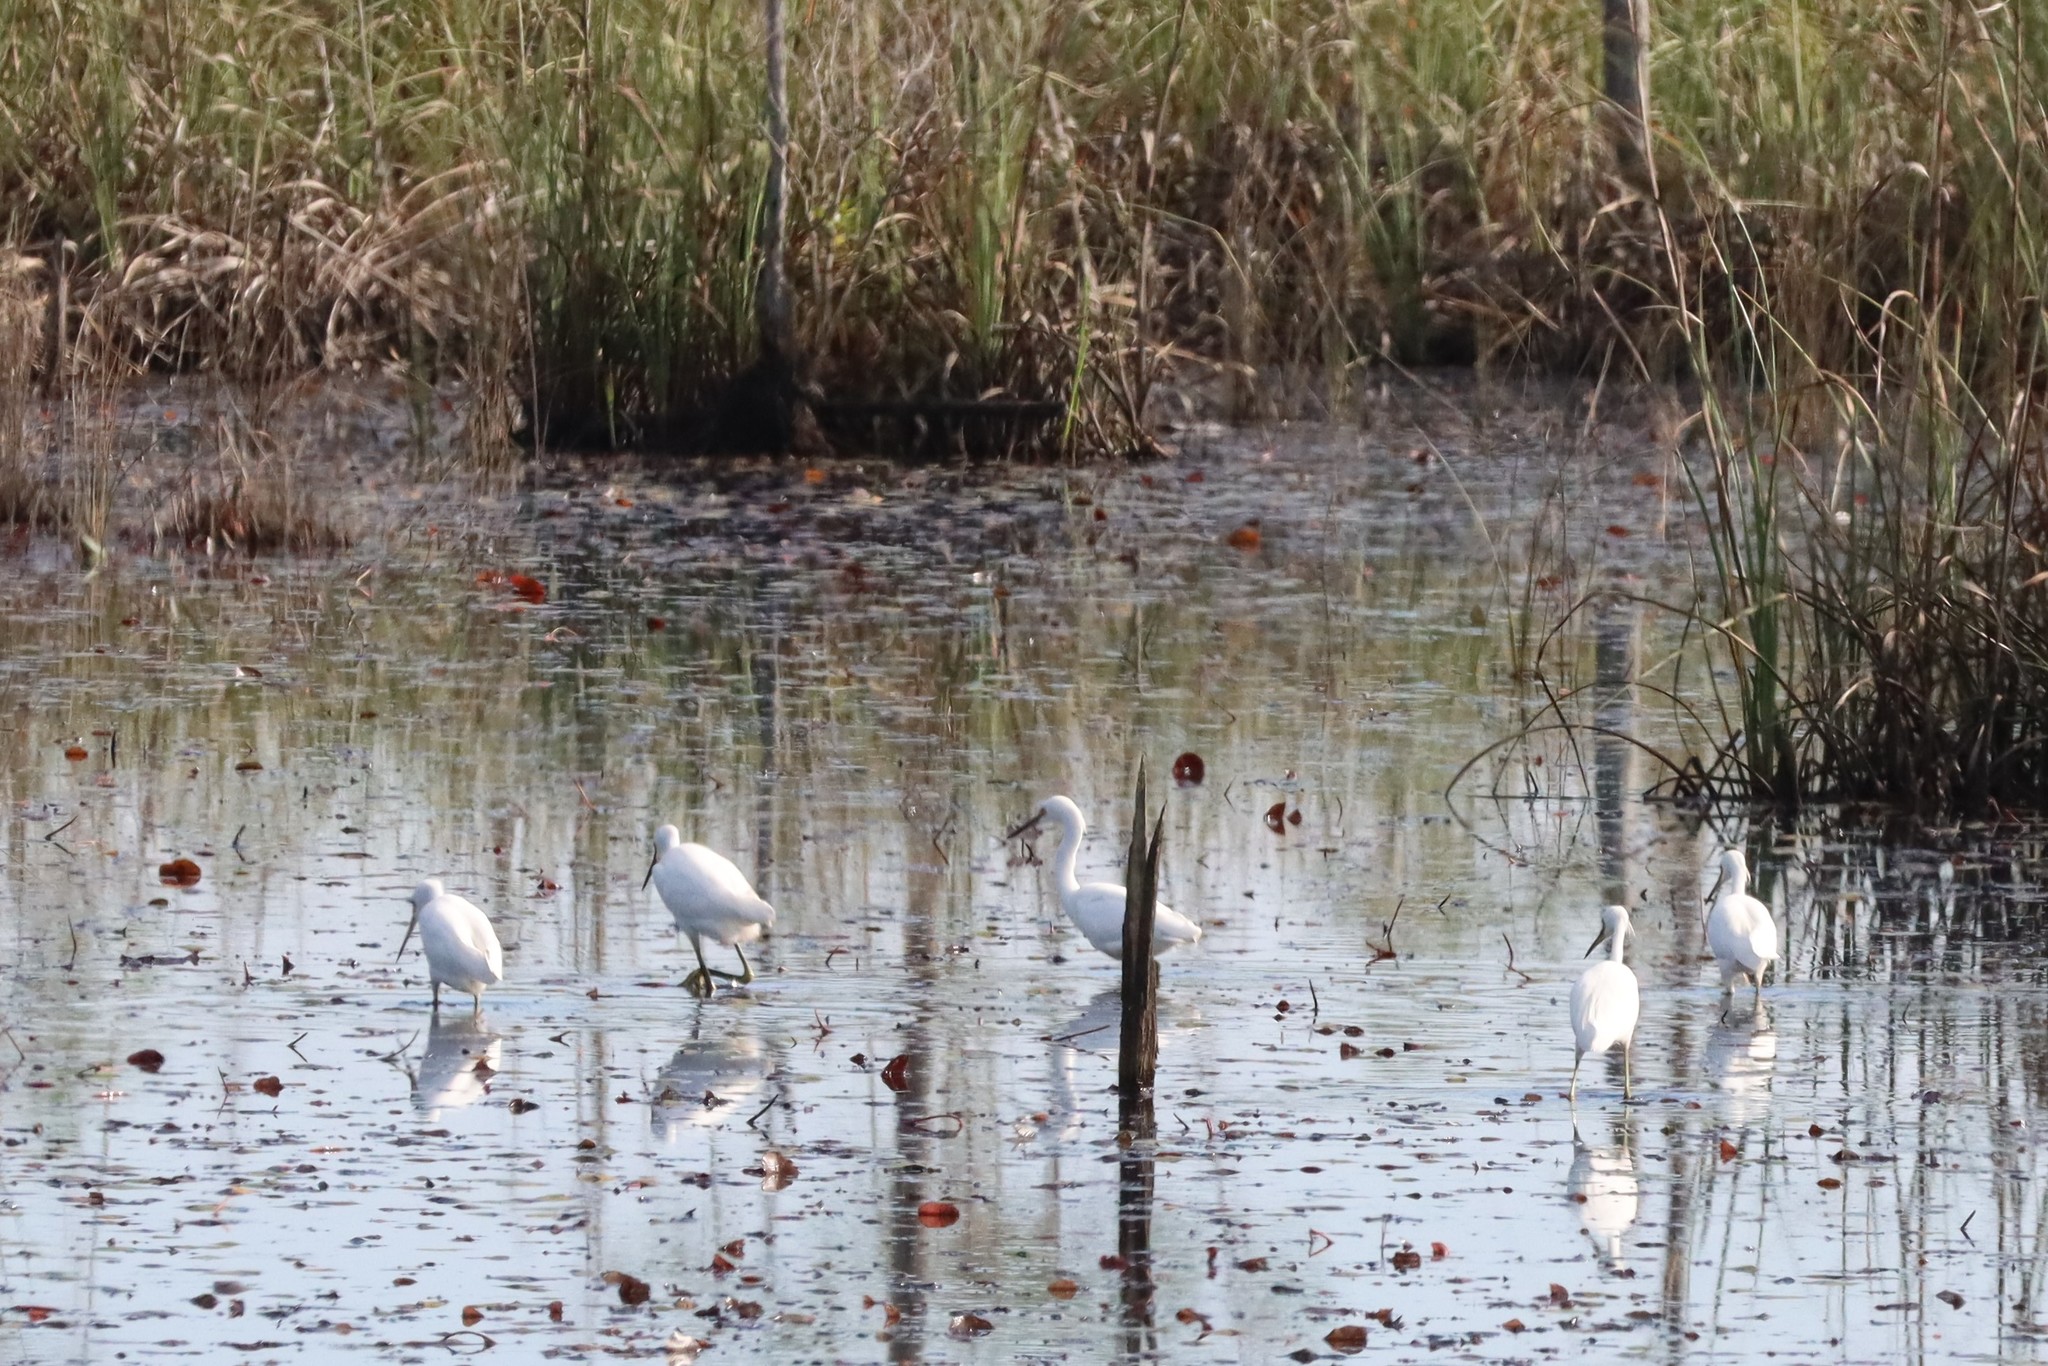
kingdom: Animalia
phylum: Chordata
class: Aves
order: Pelecaniformes
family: Ardeidae
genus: Egretta
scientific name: Egretta thula
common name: Snowy egret
